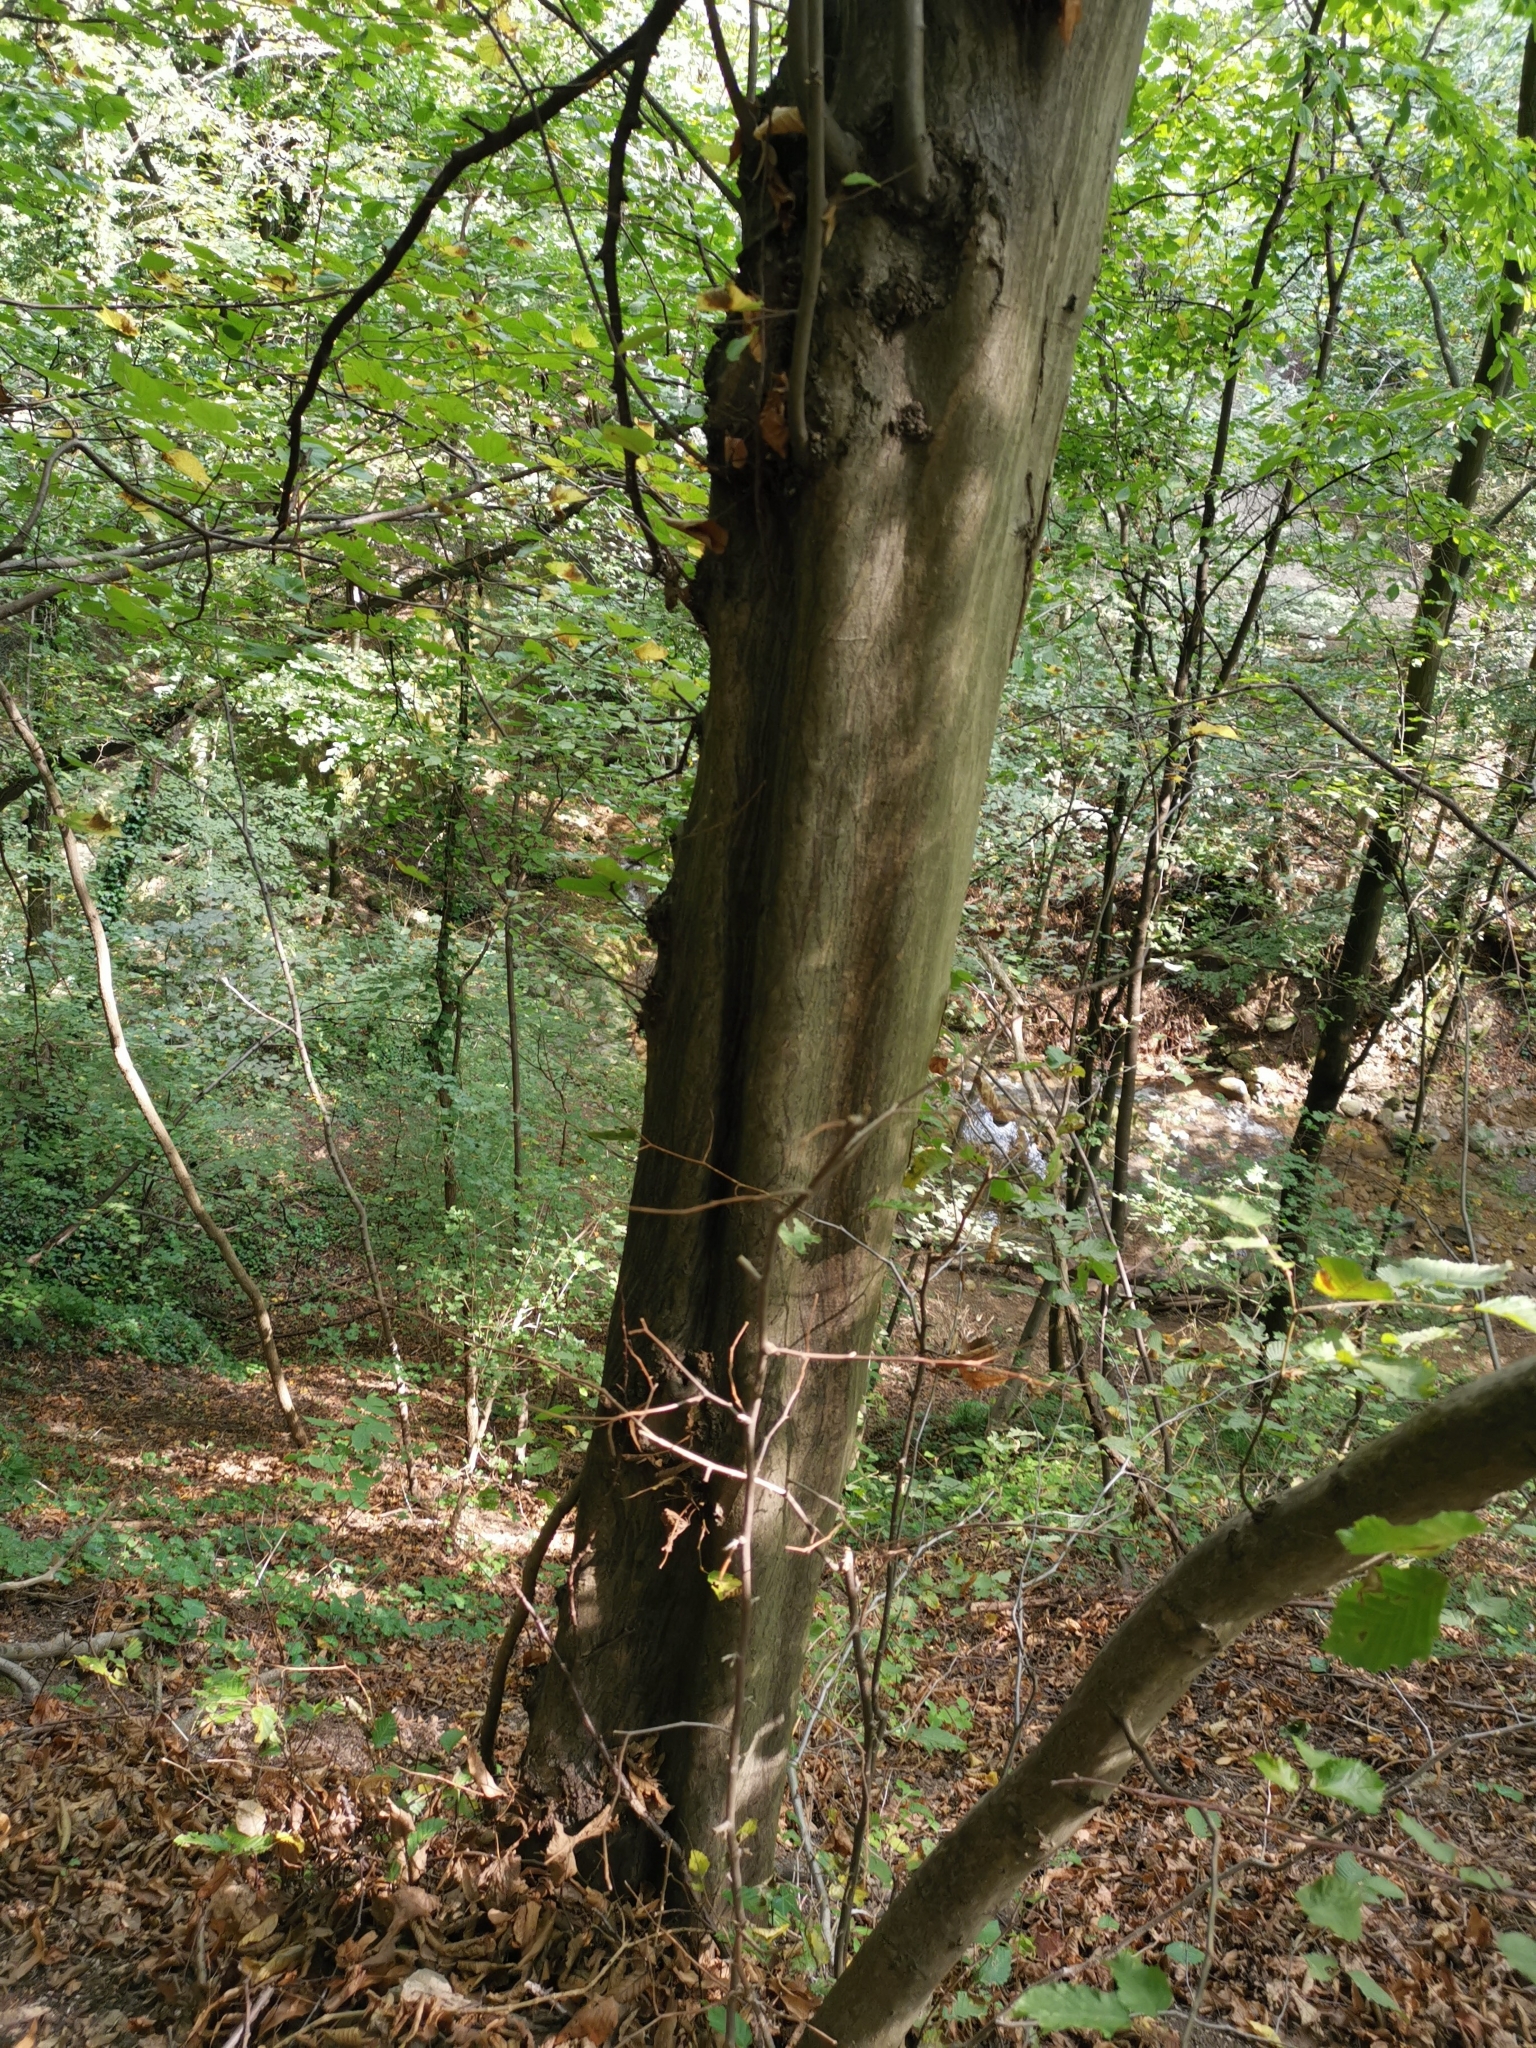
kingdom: Plantae
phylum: Tracheophyta
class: Magnoliopsida
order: Fagales
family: Betulaceae
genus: Carpinus
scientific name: Carpinus betulus
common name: Hornbeam
